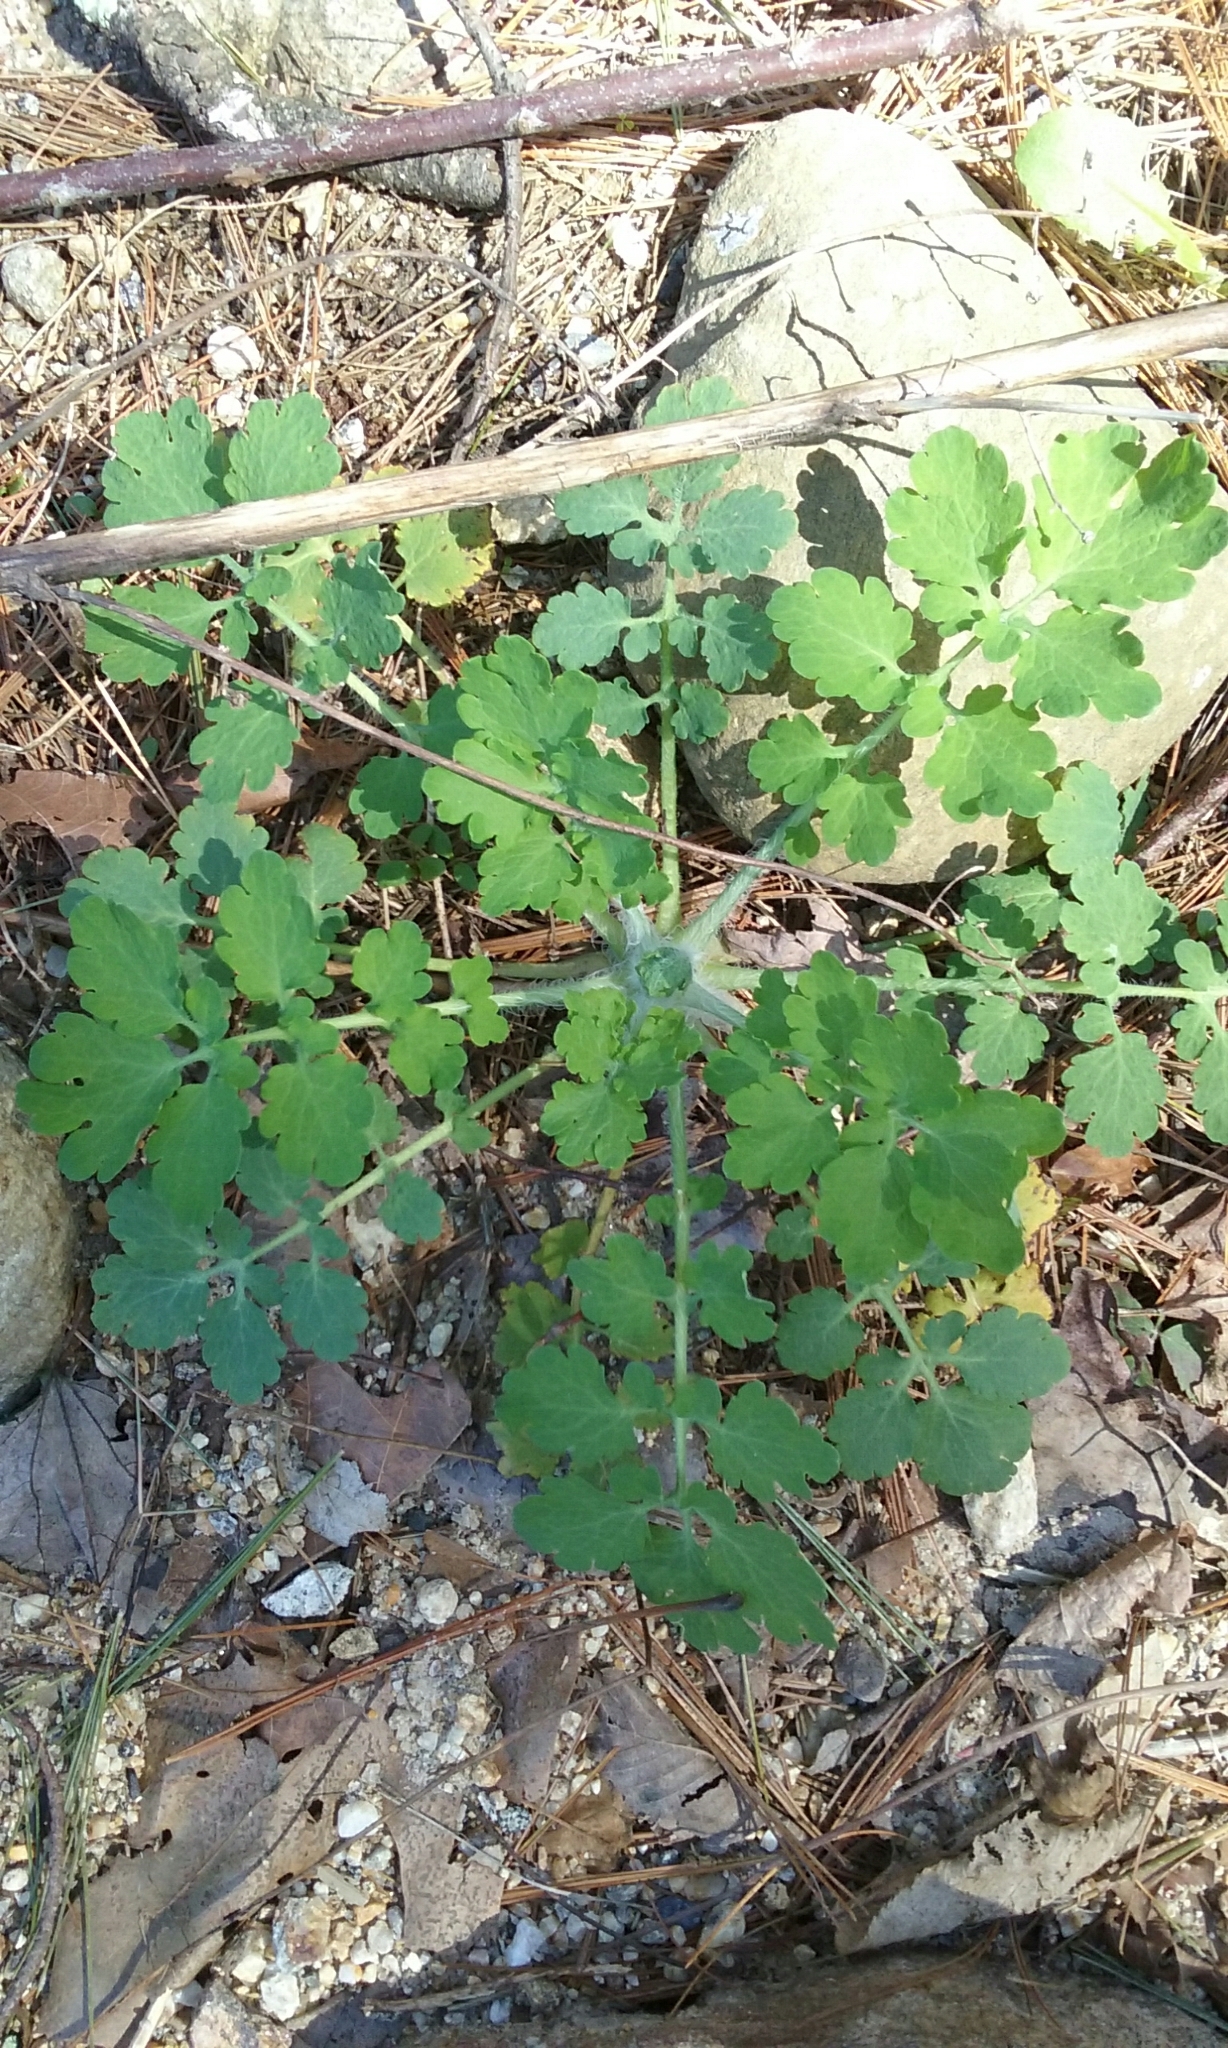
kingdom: Plantae
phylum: Tracheophyta
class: Magnoliopsida
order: Ranunculales
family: Papaveraceae
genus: Chelidonium
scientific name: Chelidonium majus
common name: Greater celandine
